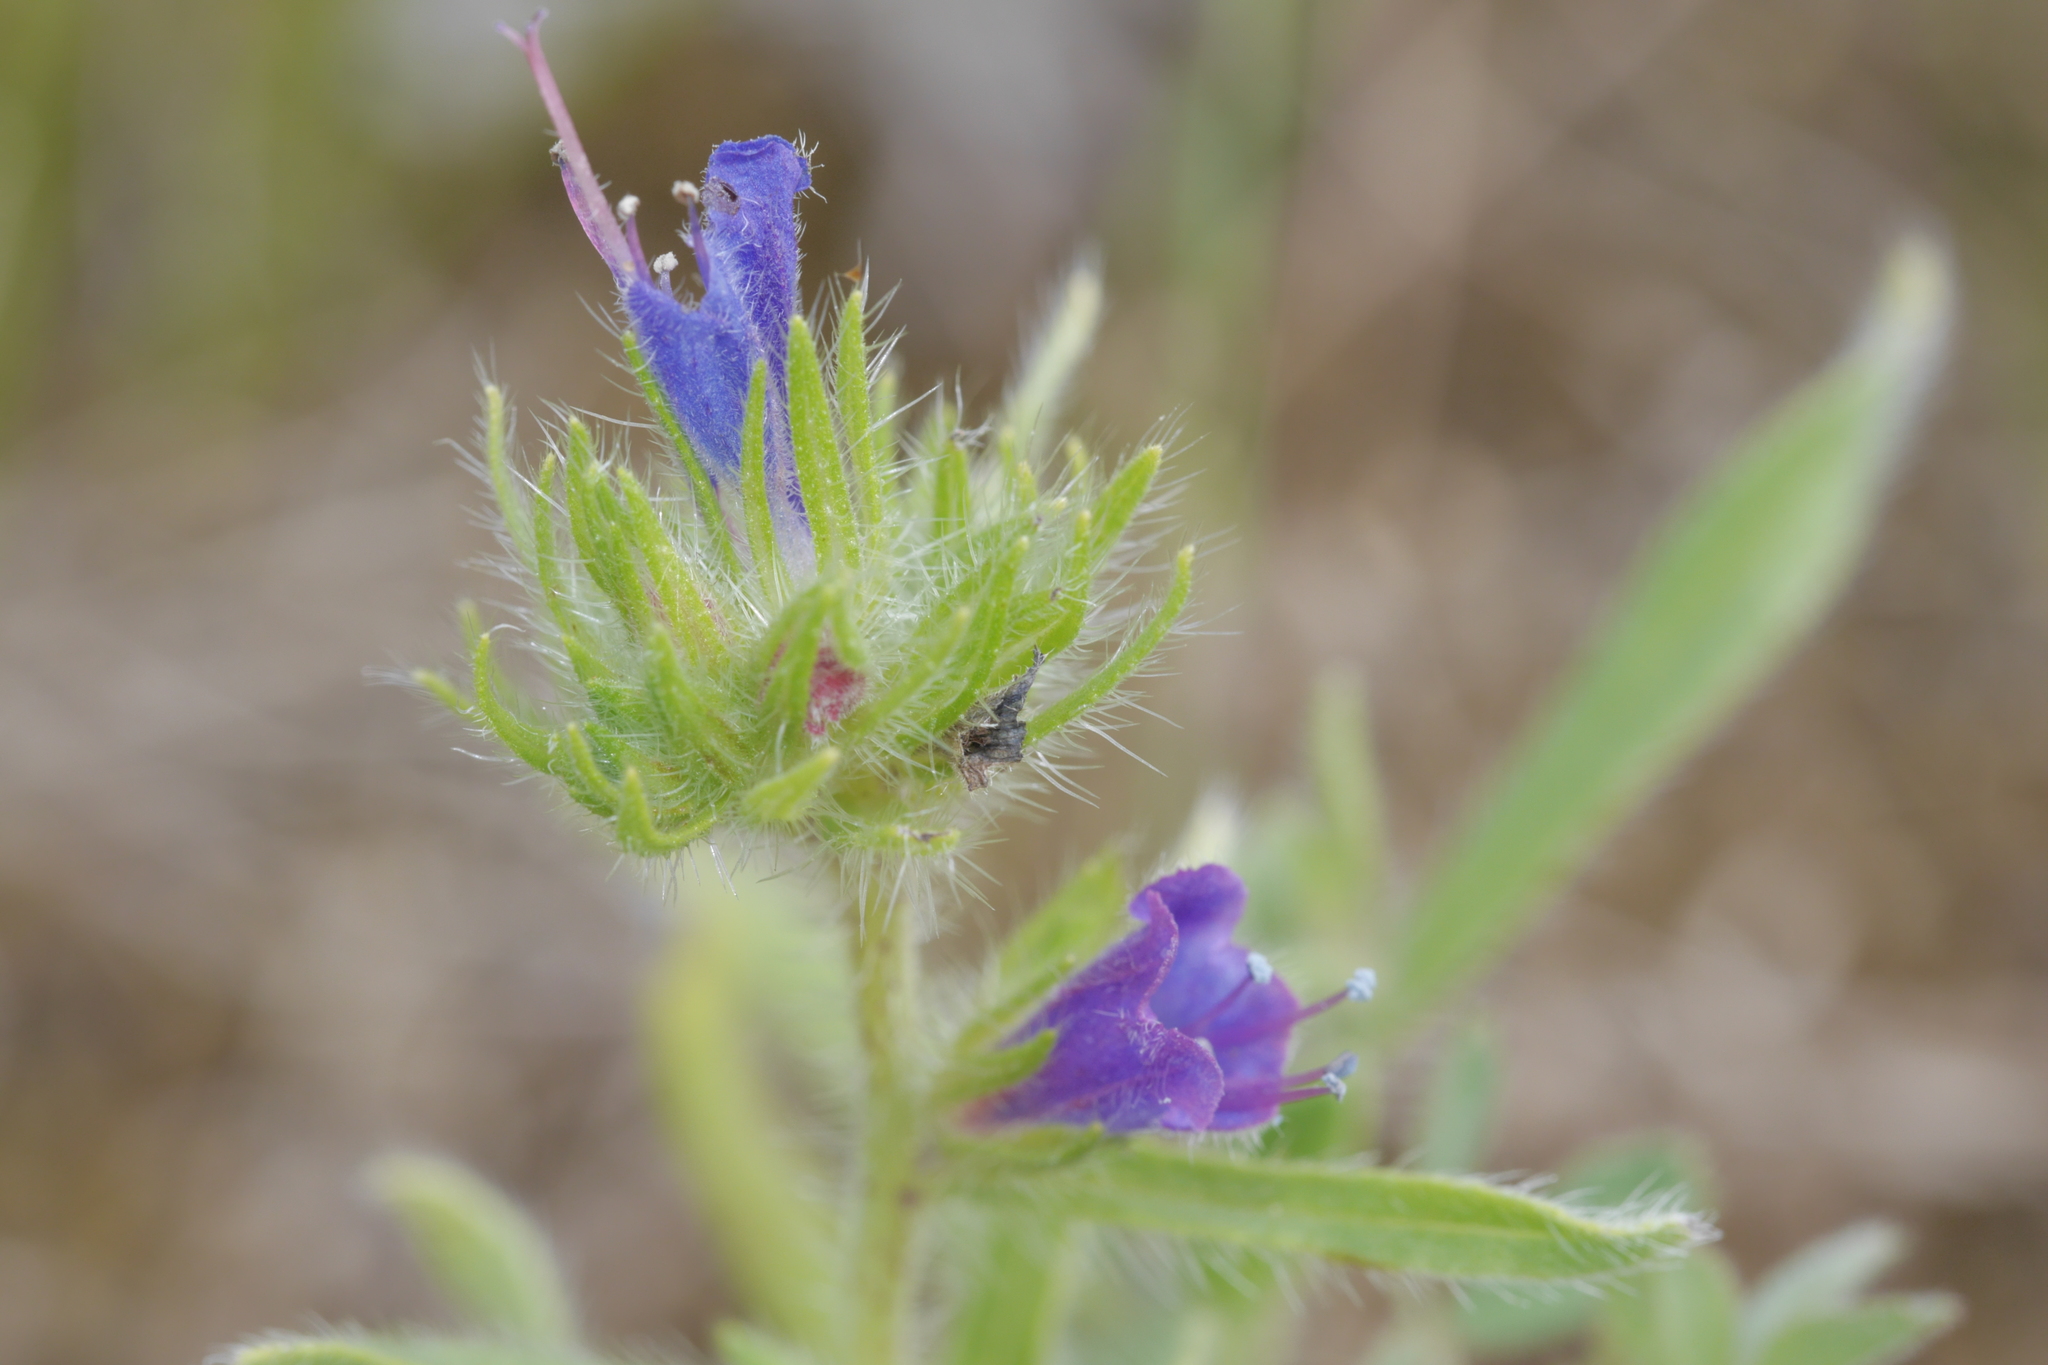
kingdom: Plantae
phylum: Tracheophyta
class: Magnoliopsida
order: Boraginales
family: Boraginaceae
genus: Echium
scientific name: Echium vulgare
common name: Common viper's bugloss
